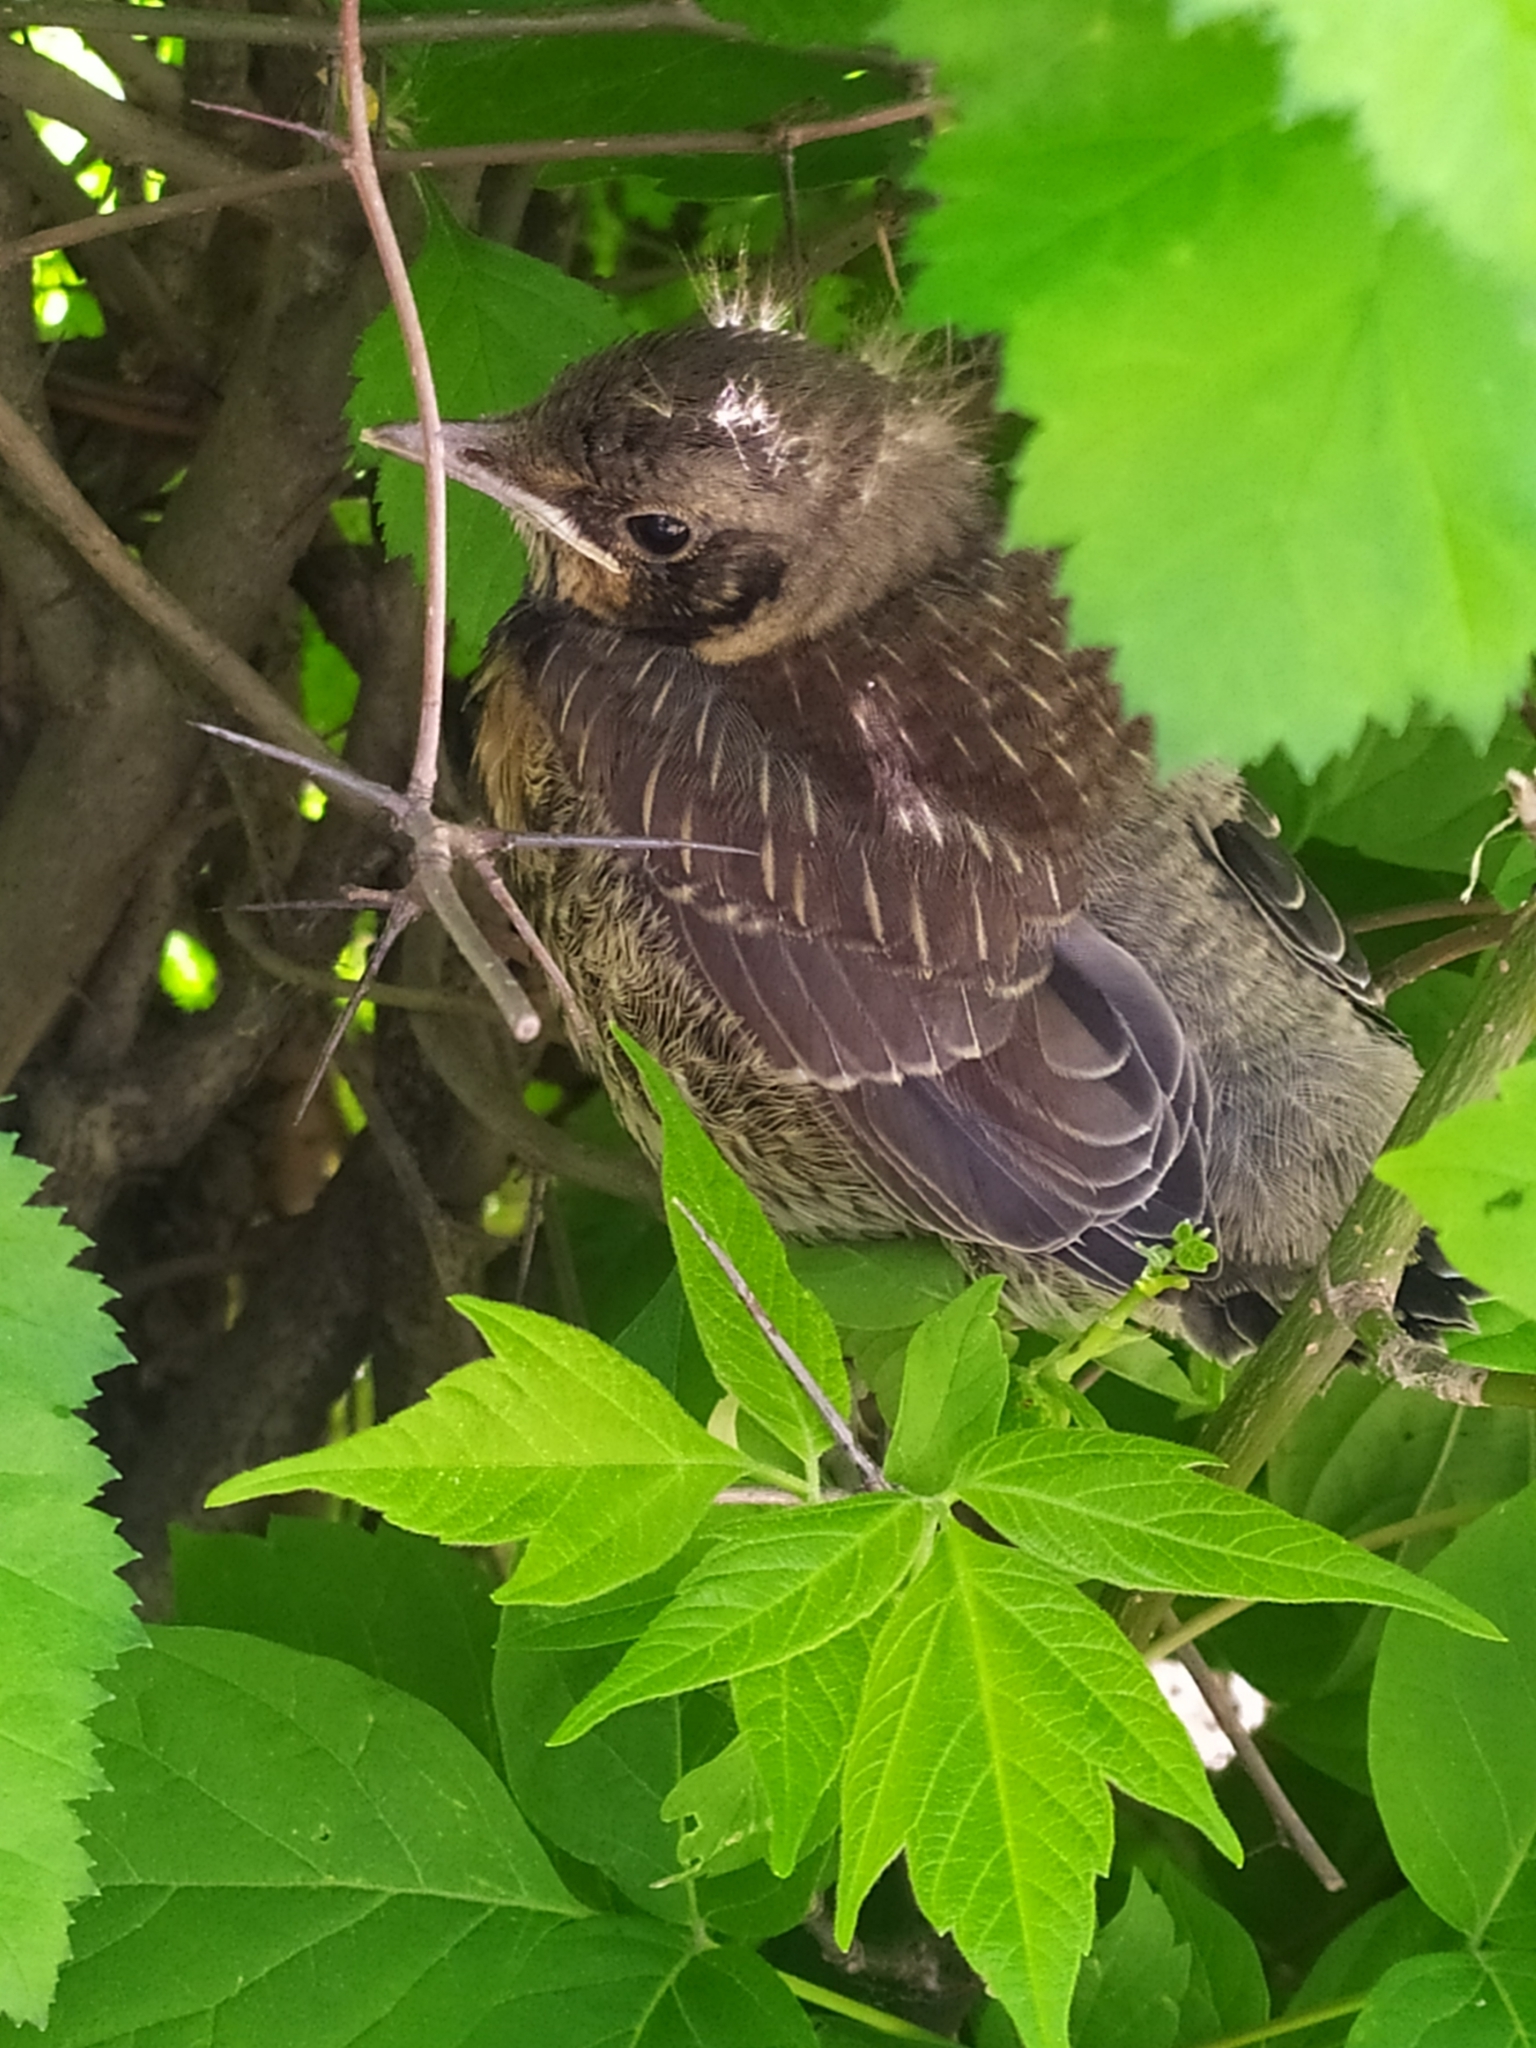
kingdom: Animalia
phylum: Chordata
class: Aves
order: Passeriformes
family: Turdidae
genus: Turdus
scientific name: Turdus pilaris
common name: Fieldfare
